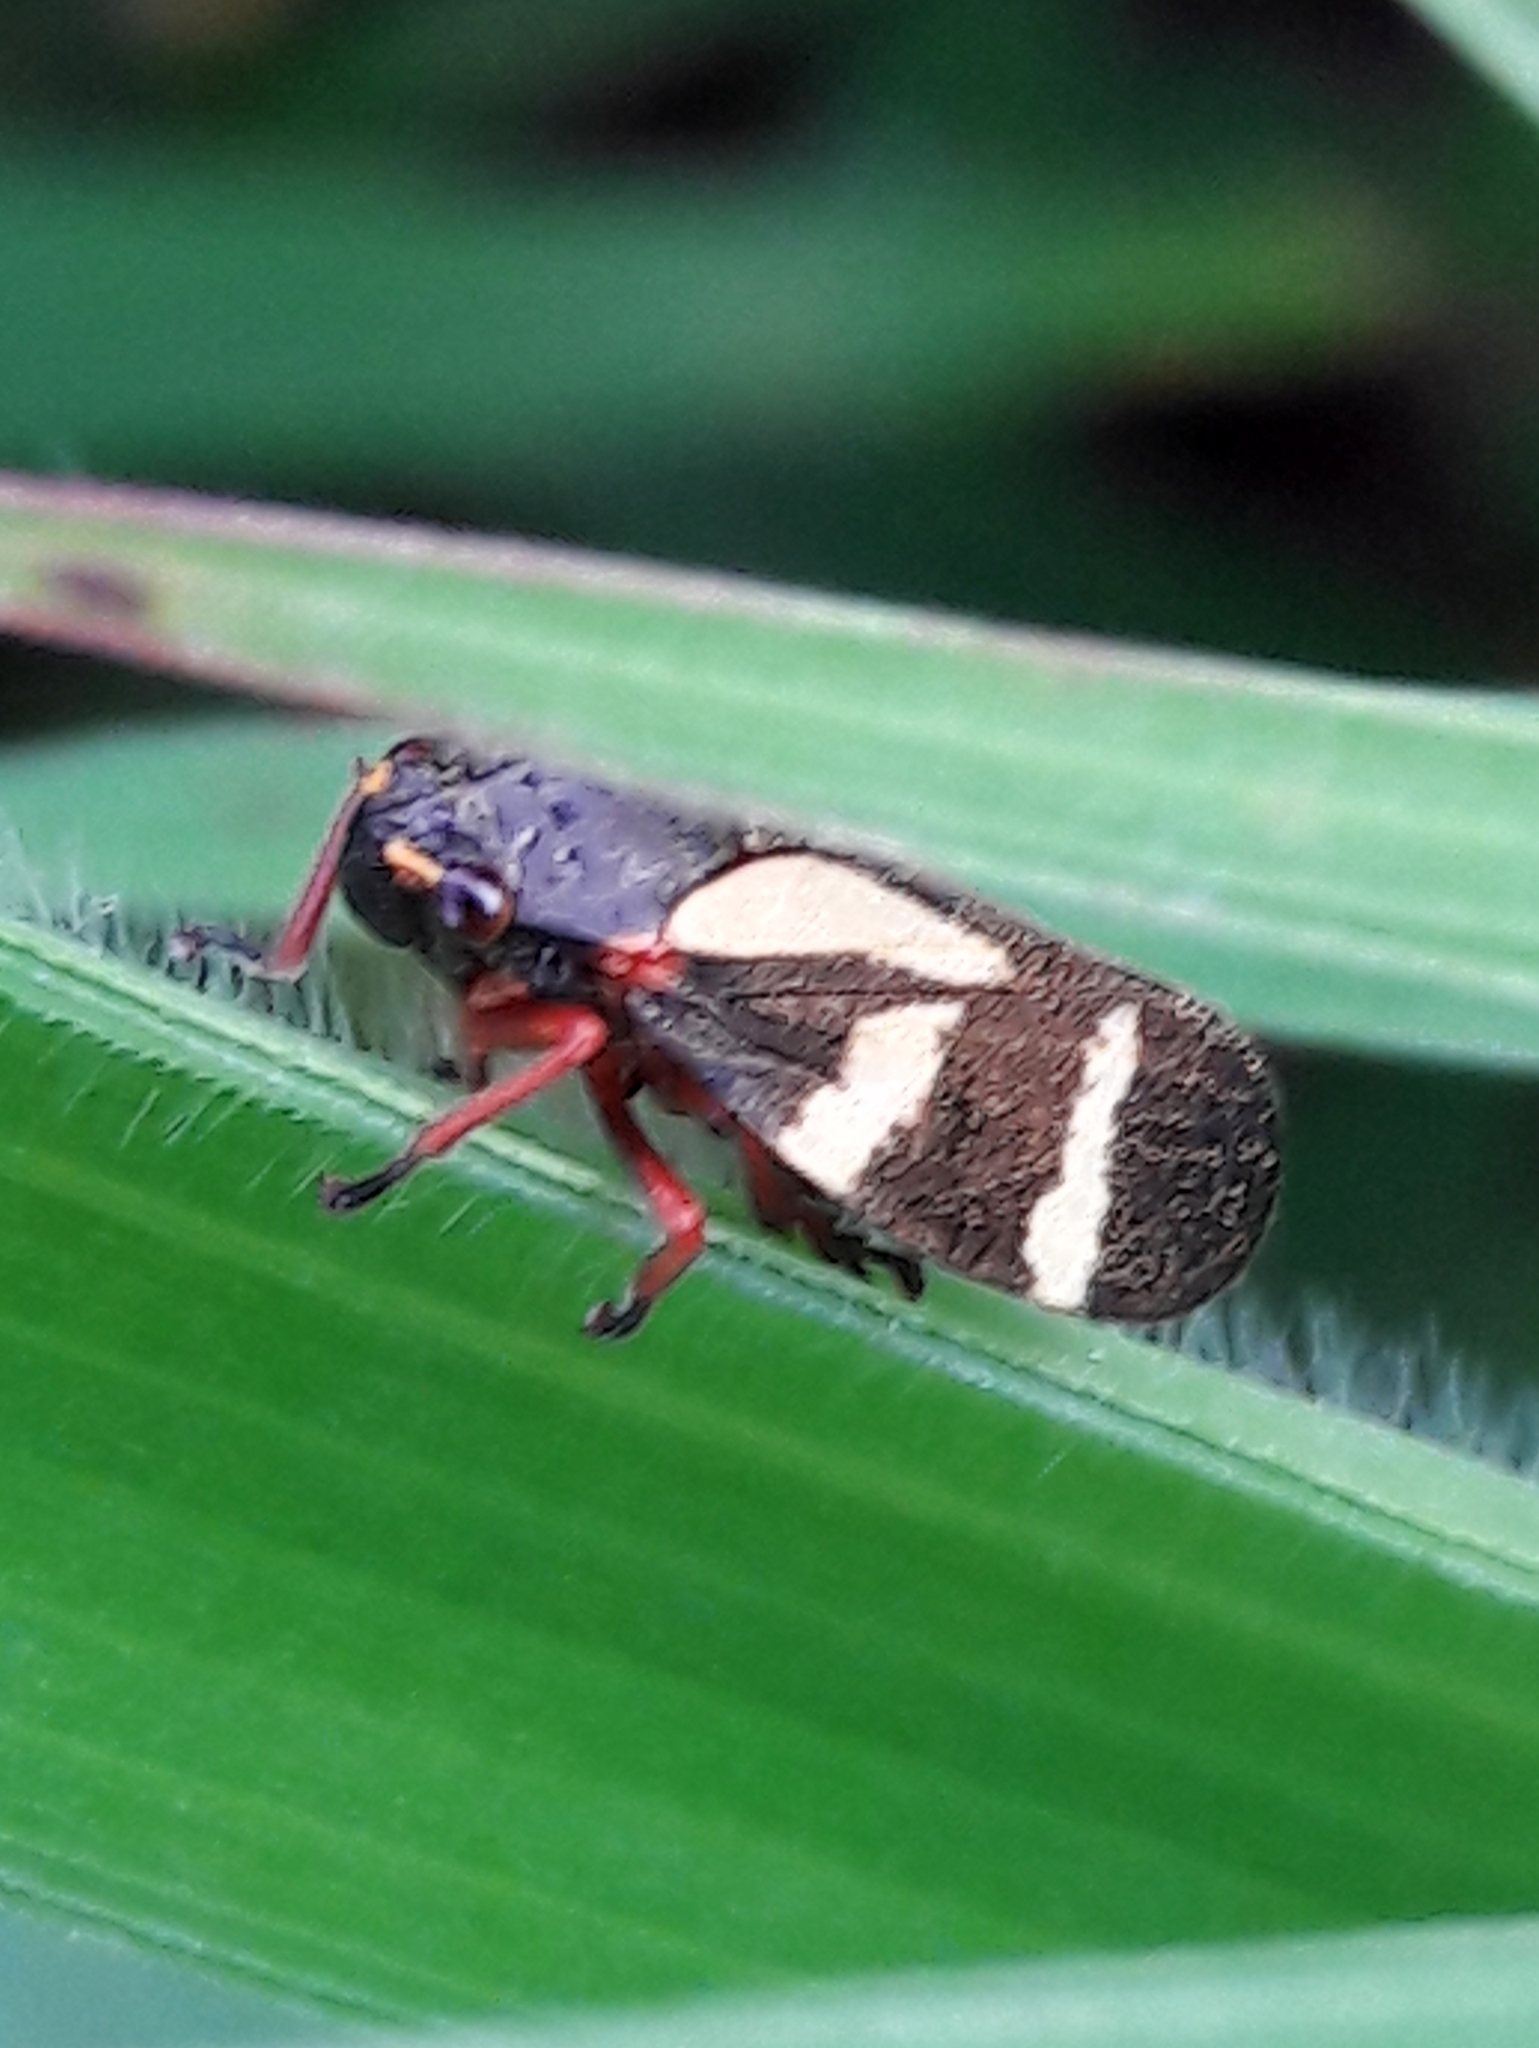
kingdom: Animalia
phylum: Arthropoda
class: Insecta
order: Hemiptera
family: Cercopidae
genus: Deois
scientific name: Deois flavopicta
